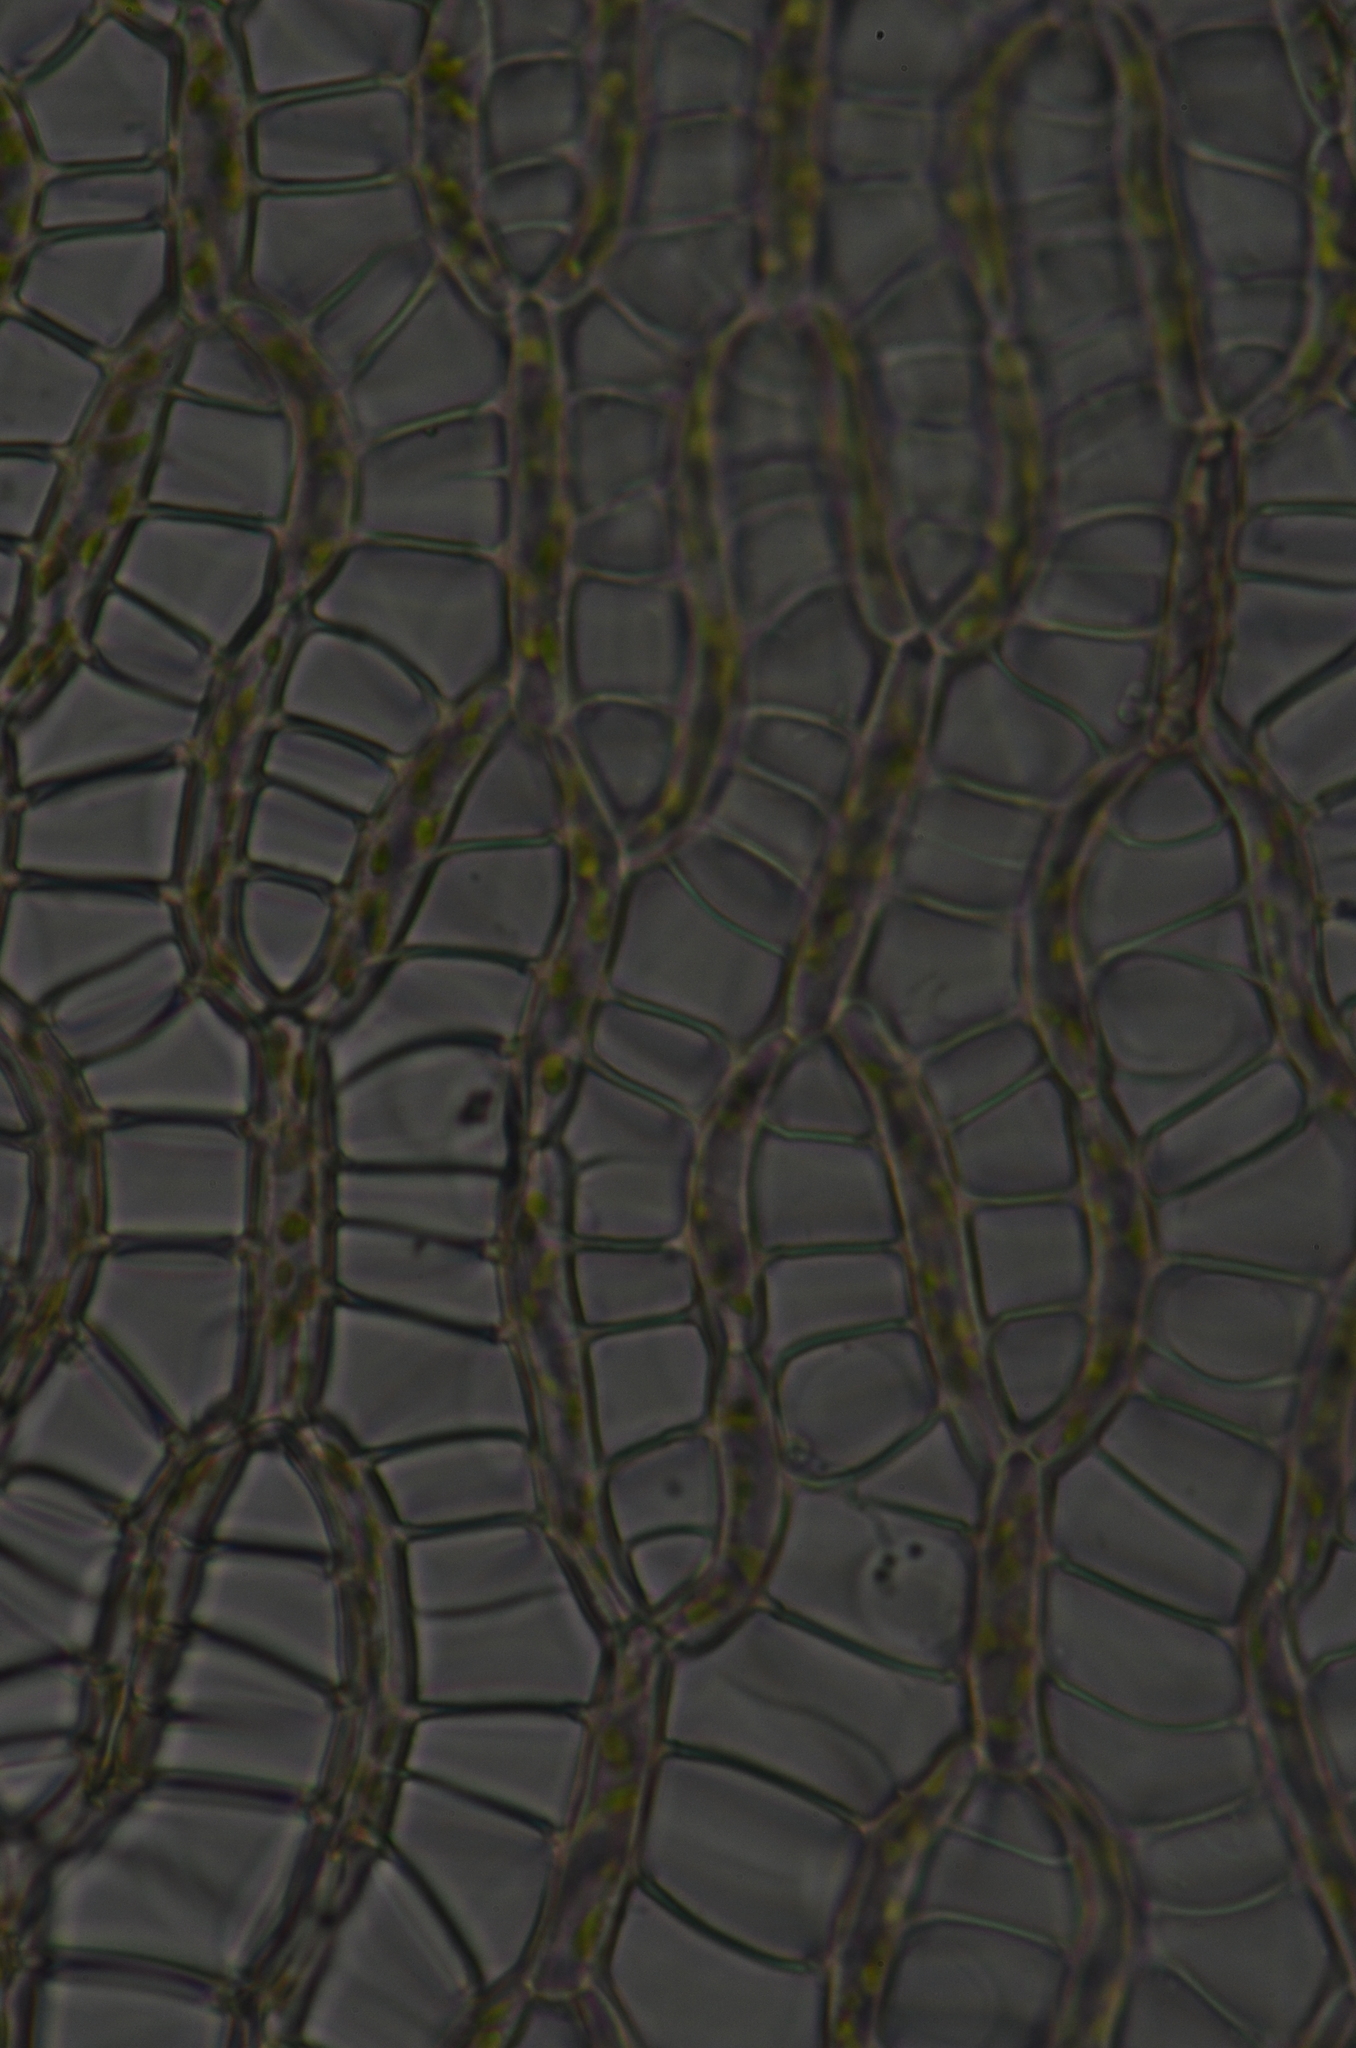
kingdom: Plantae
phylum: Bryophyta
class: Sphagnopsida
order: Sphagnales
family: Sphagnaceae
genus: Sphagnum
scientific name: Sphagnum capillifolium
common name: Small red peat moss
